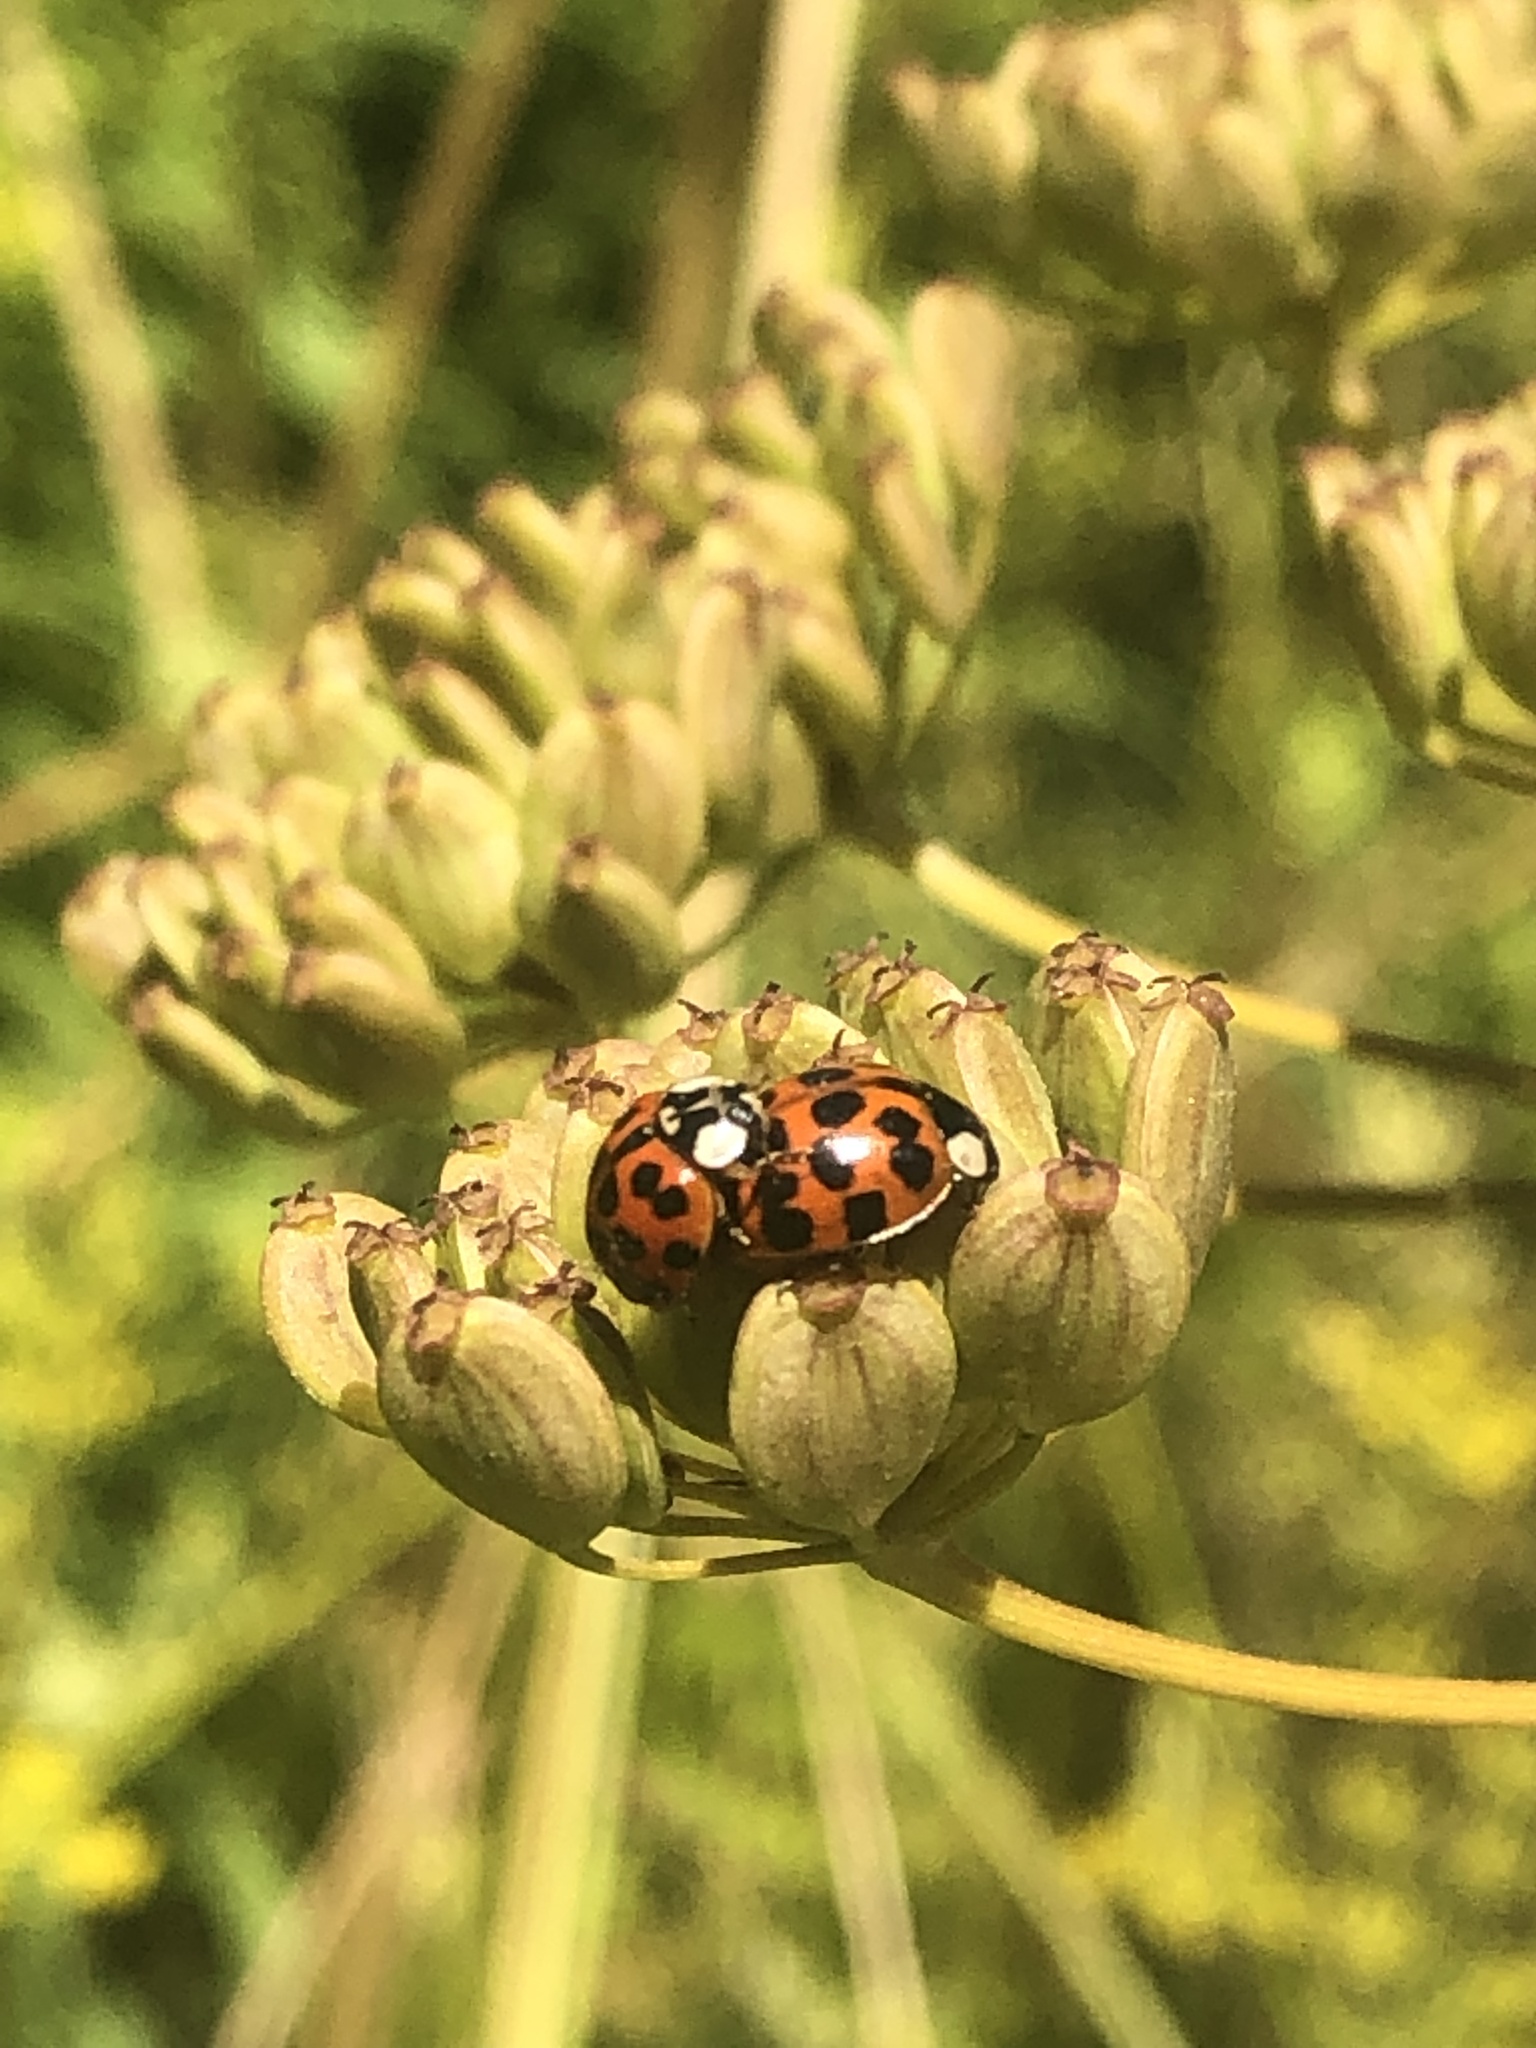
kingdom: Animalia
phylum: Arthropoda
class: Insecta
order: Coleoptera
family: Coccinellidae
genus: Harmonia
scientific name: Harmonia axyridis
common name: Harlequin ladybird
